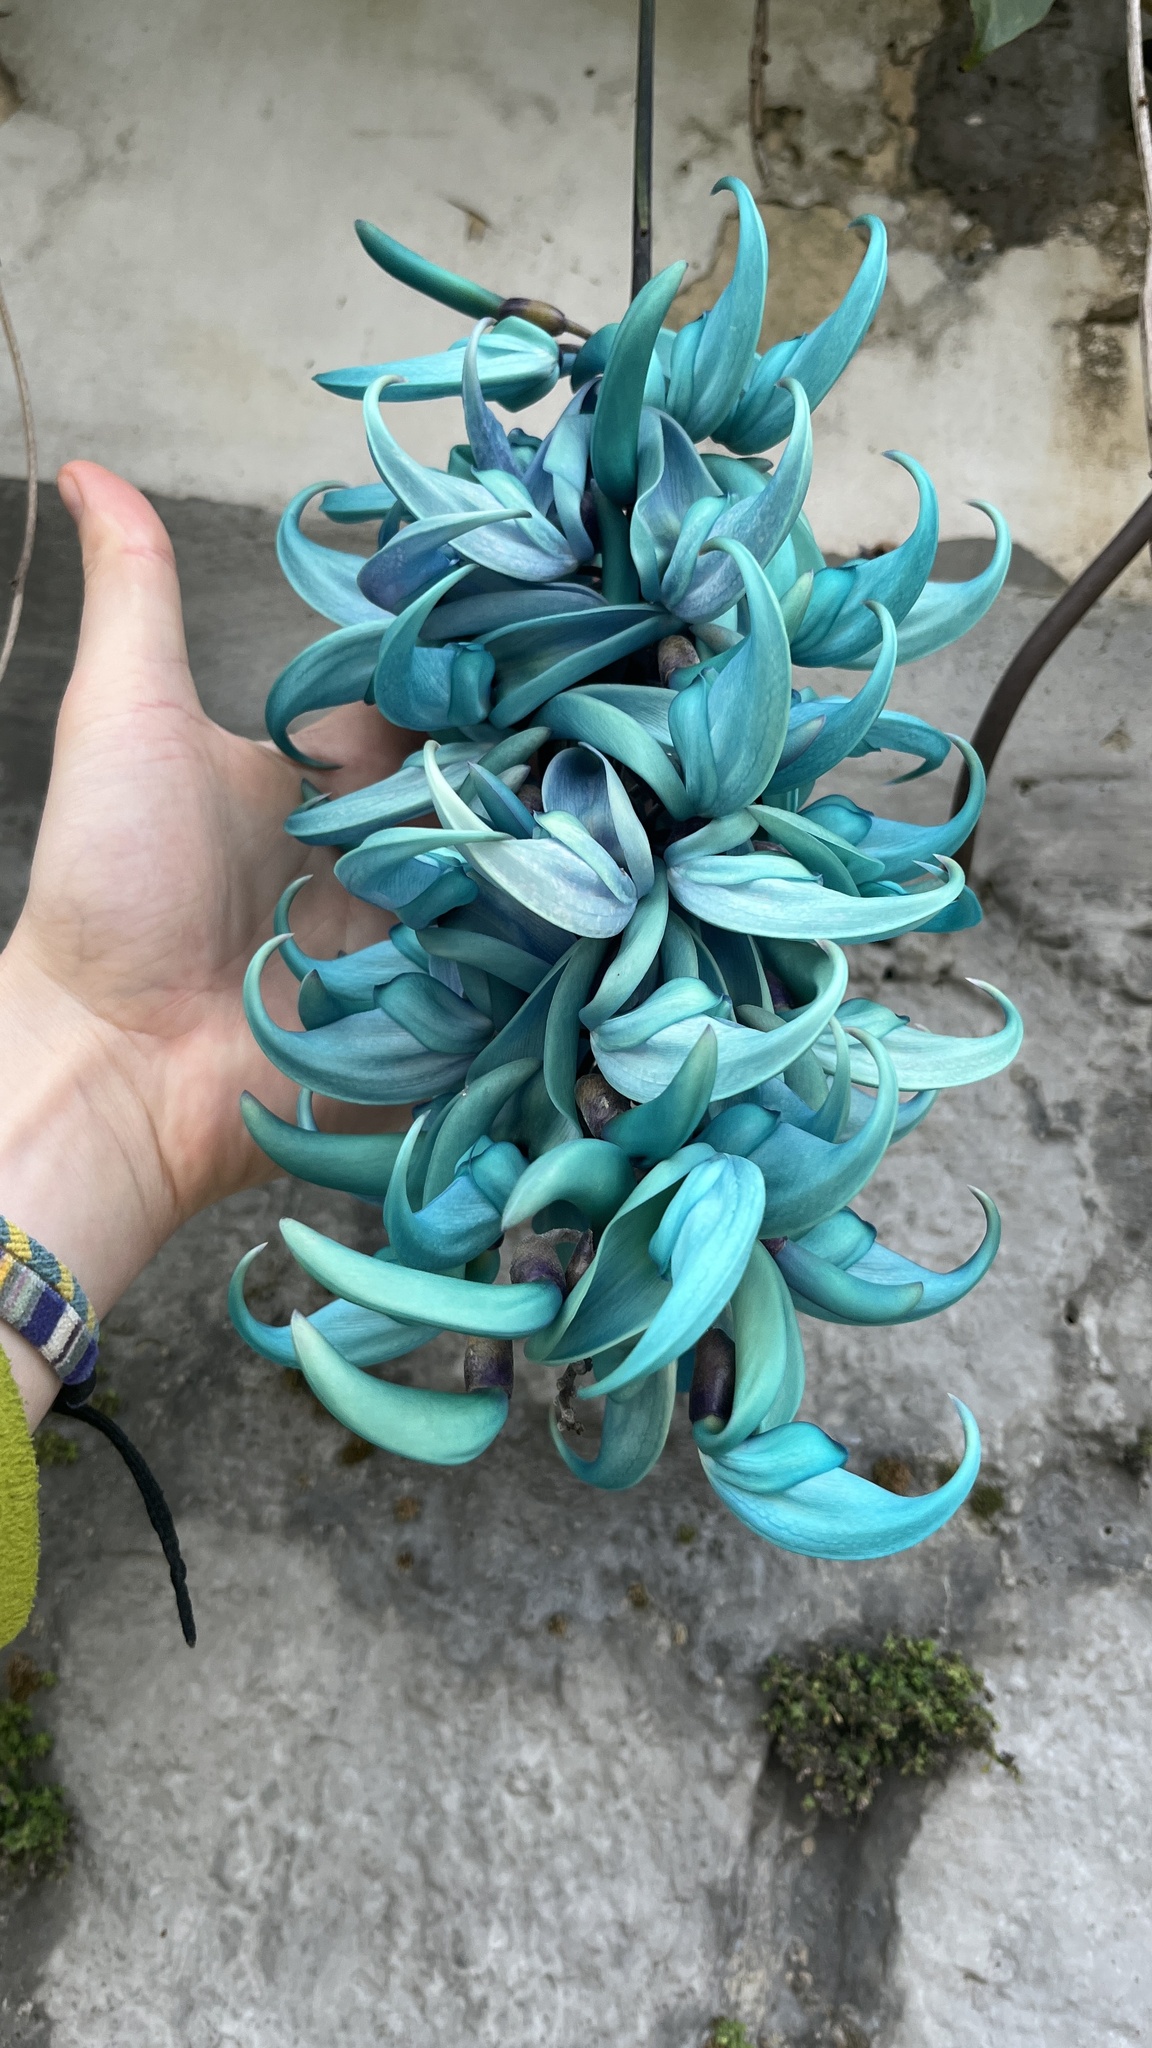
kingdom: Plantae
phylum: Tracheophyta
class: Magnoliopsida
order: Fabales
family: Fabaceae
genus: Strongylodon
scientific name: Strongylodon macrobotrys
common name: Jadevine
